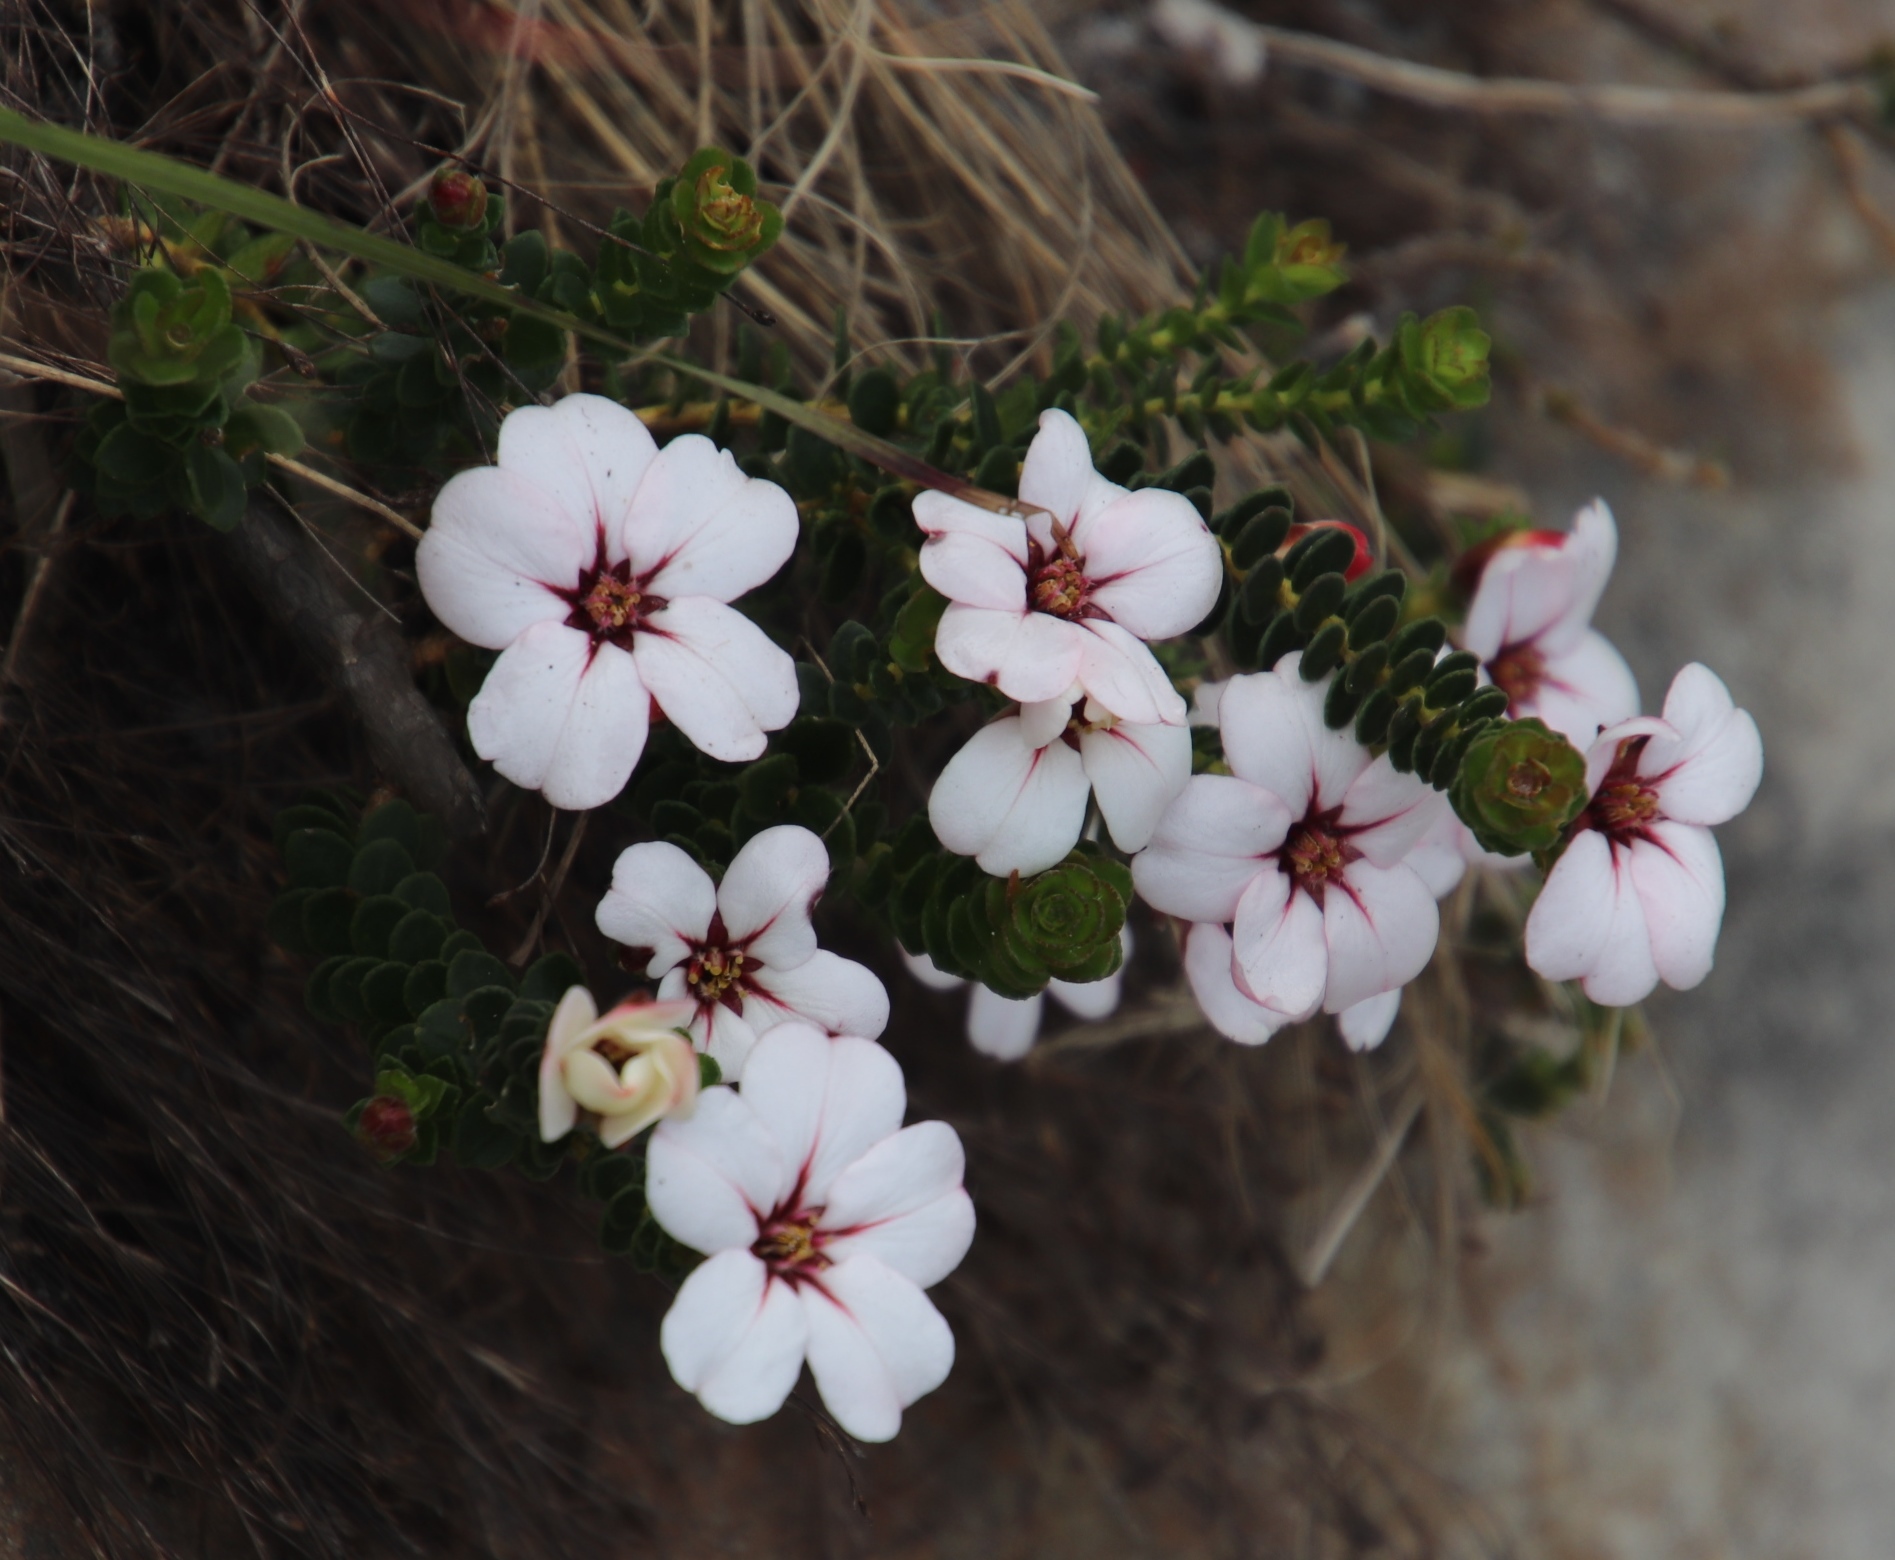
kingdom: Plantae
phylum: Tracheophyta
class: Magnoliopsida
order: Sapindales
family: Rutaceae
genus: Adenandra
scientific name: Adenandra villosa
